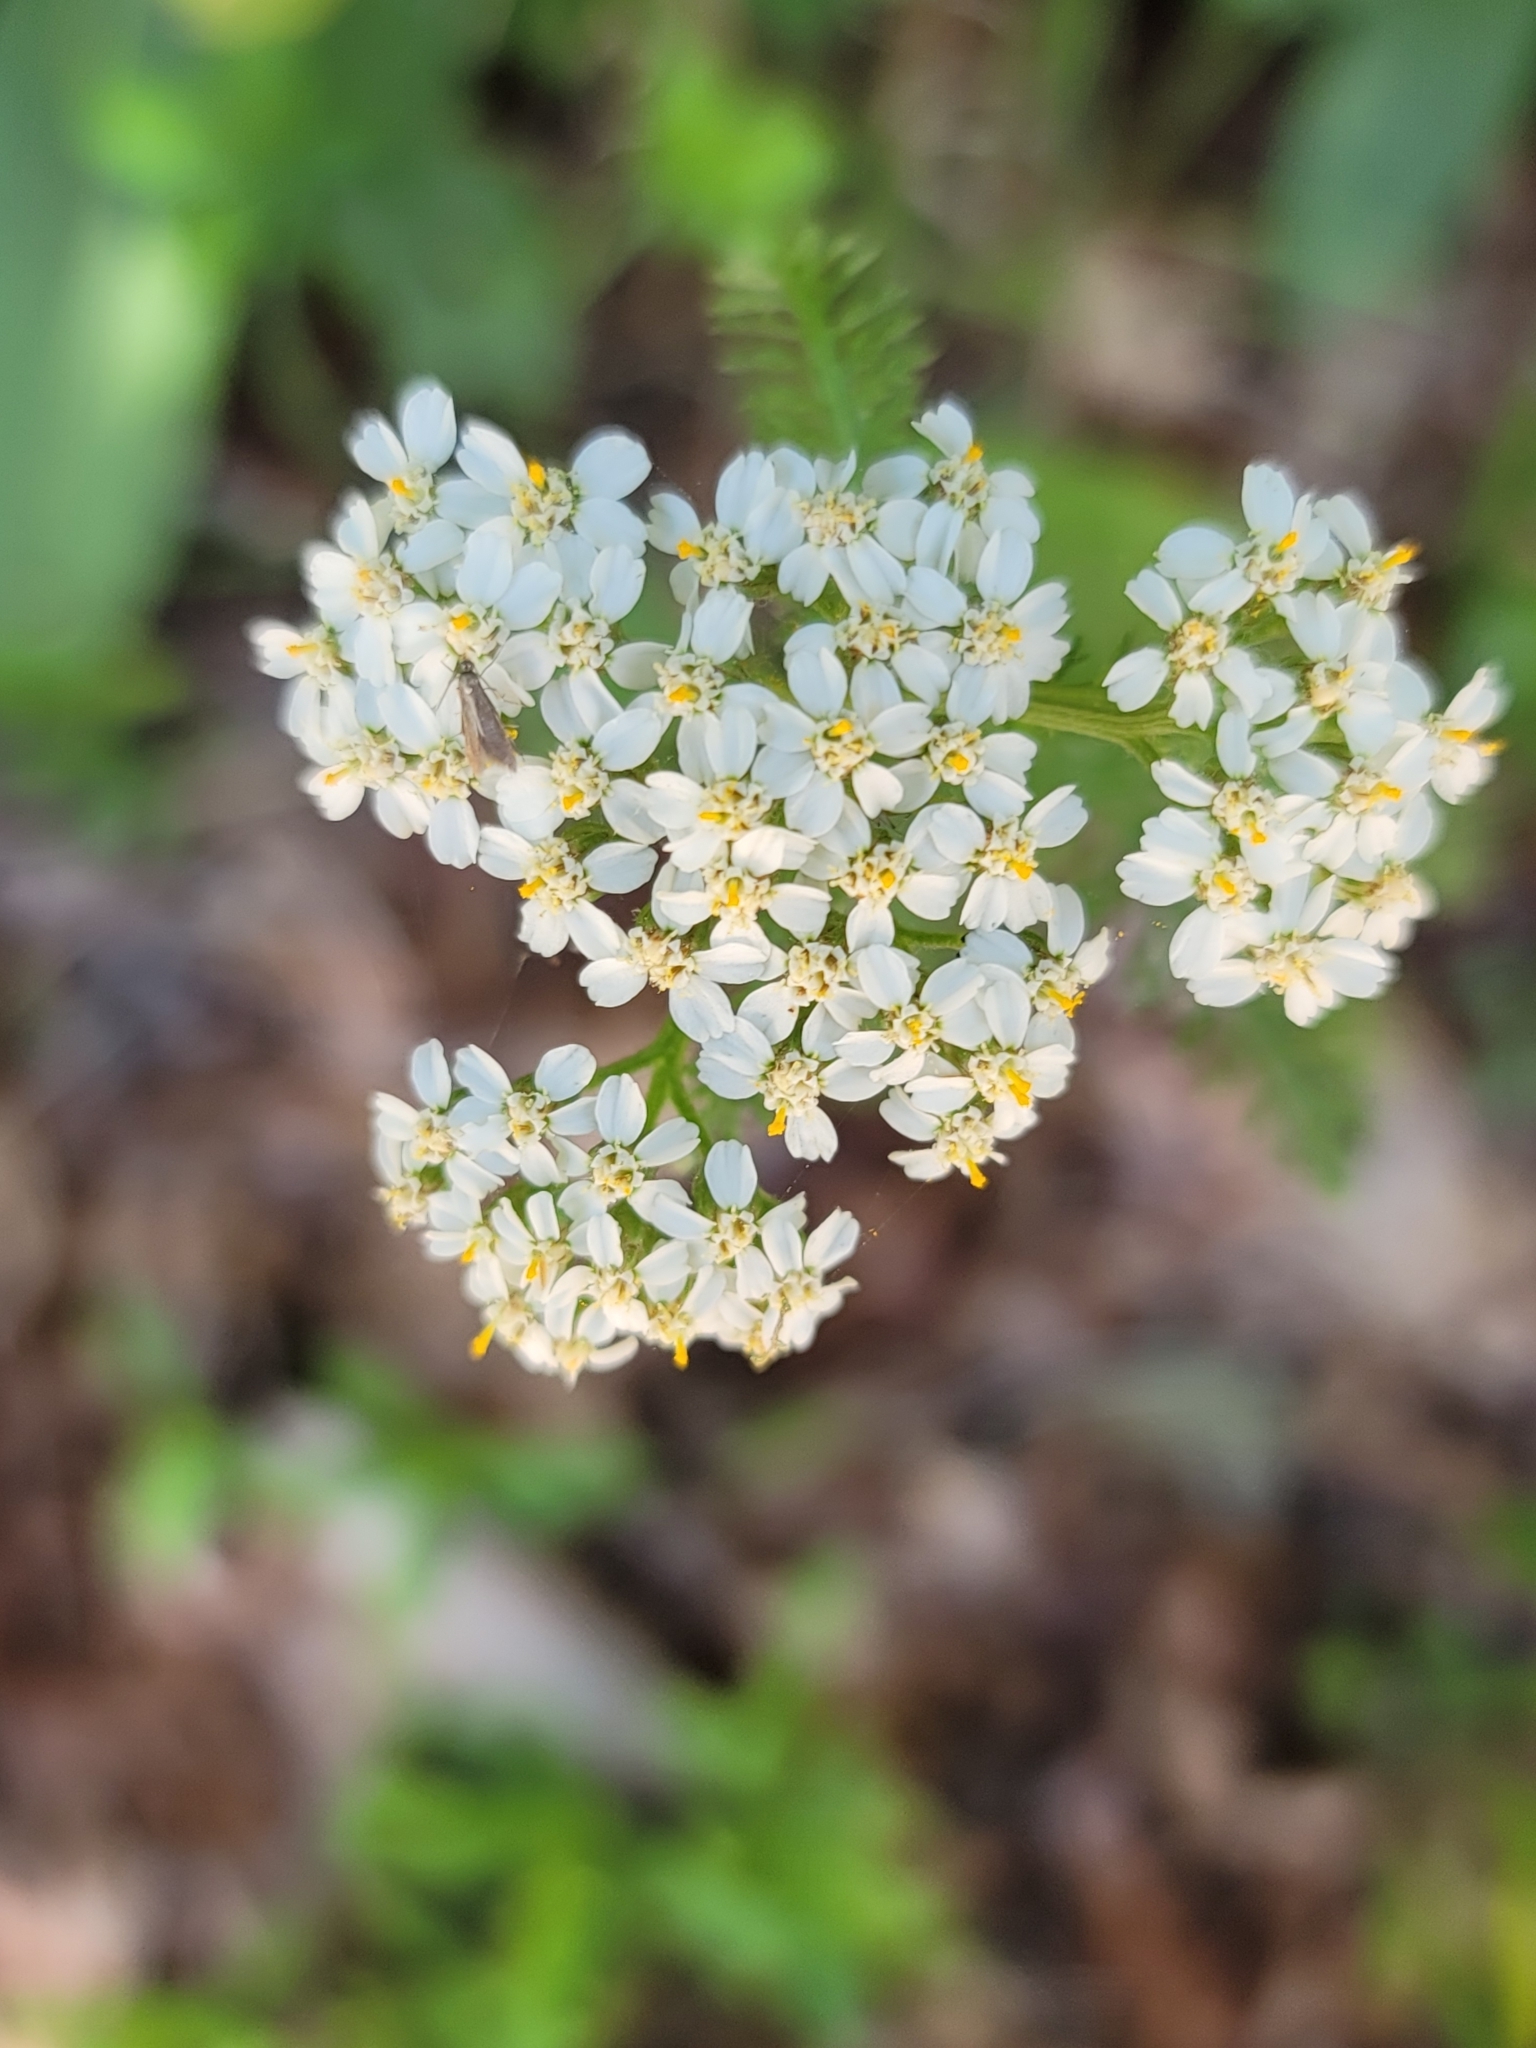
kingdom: Plantae
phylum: Tracheophyta
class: Magnoliopsida
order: Asterales
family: Asteraceae
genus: Achillea
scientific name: Achillea millefolium
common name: Yarrow
